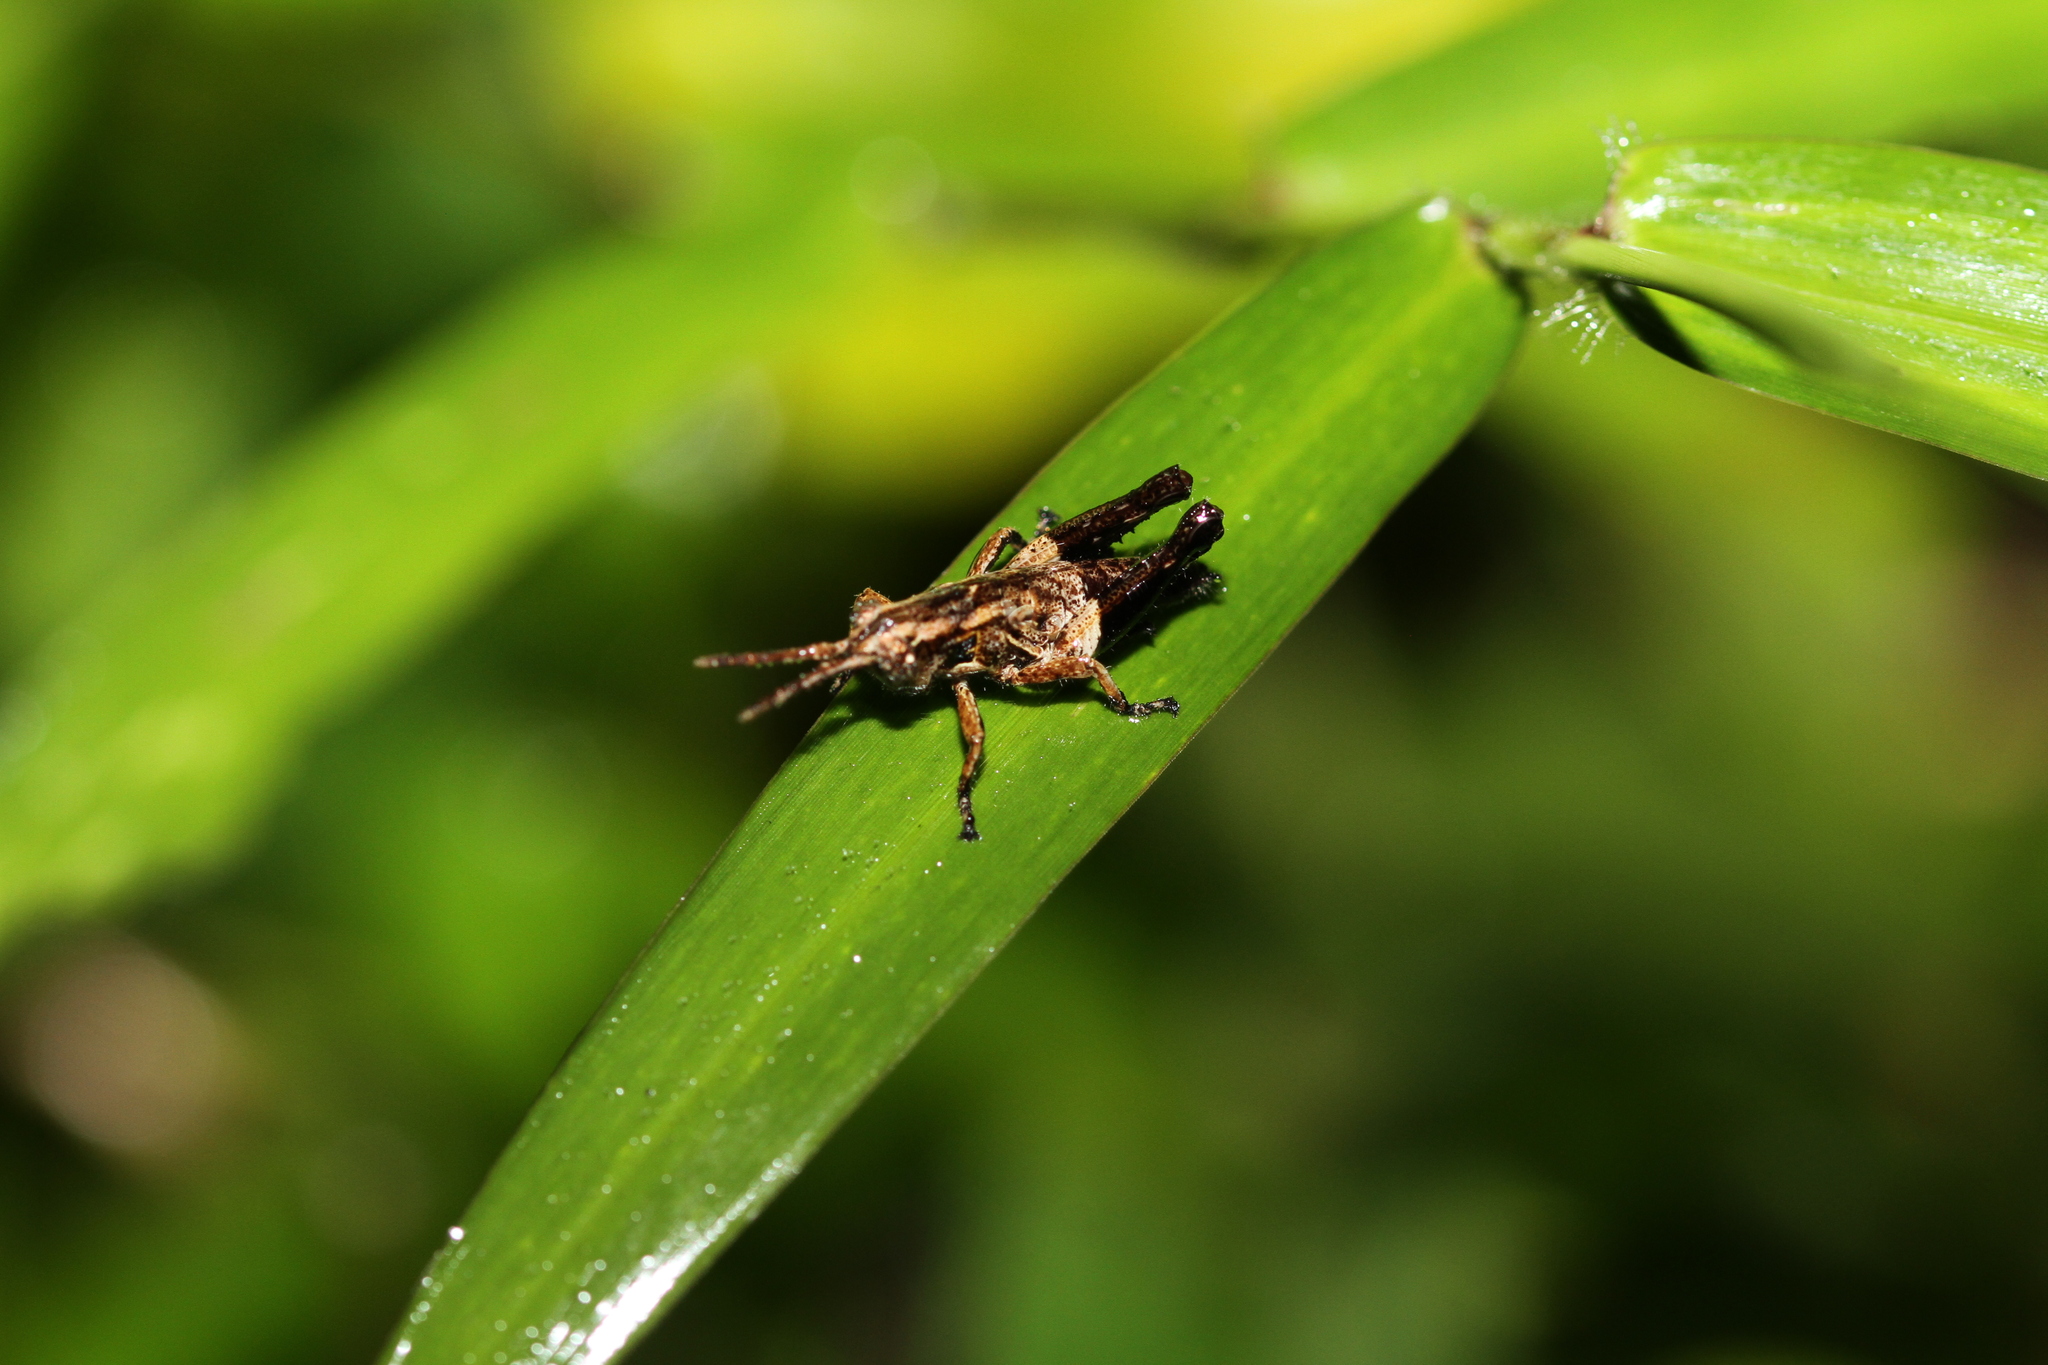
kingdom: Animalia
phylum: Arthropoda
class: Insecta
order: Orthoptera
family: Acrididae
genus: Traulia
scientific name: Traulia flavoannulata
